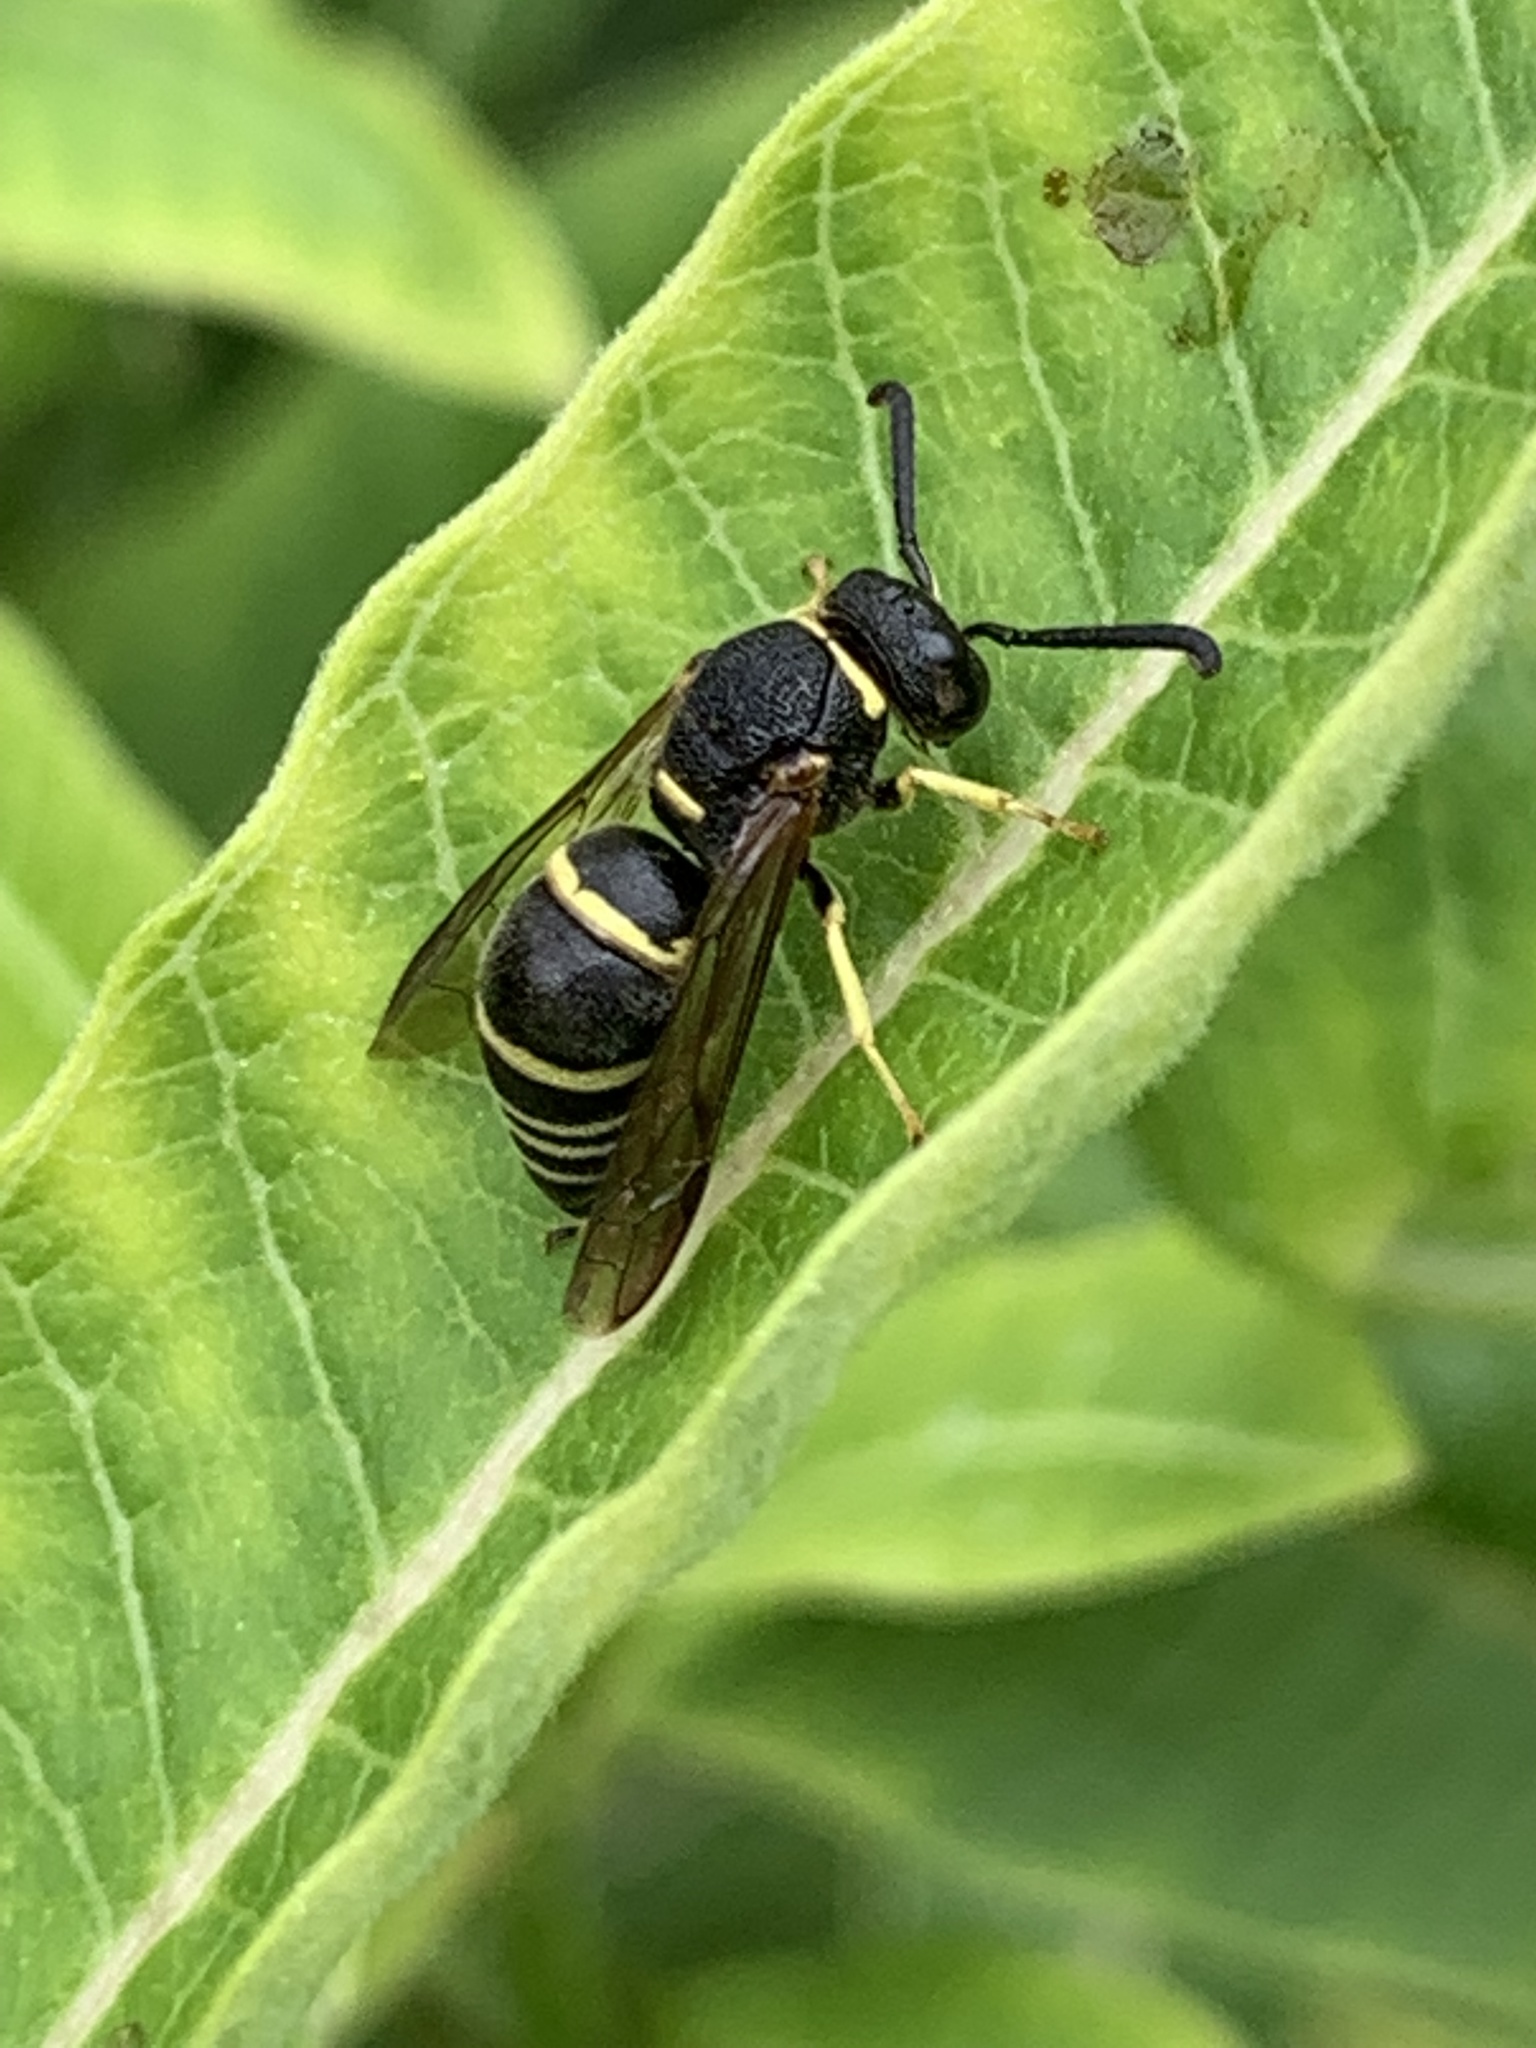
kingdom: Animalia
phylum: Arthropoda
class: Insecta
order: Hymenoptera
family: Eumenidae
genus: Euodynerus
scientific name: Euodynerus foraminatus
